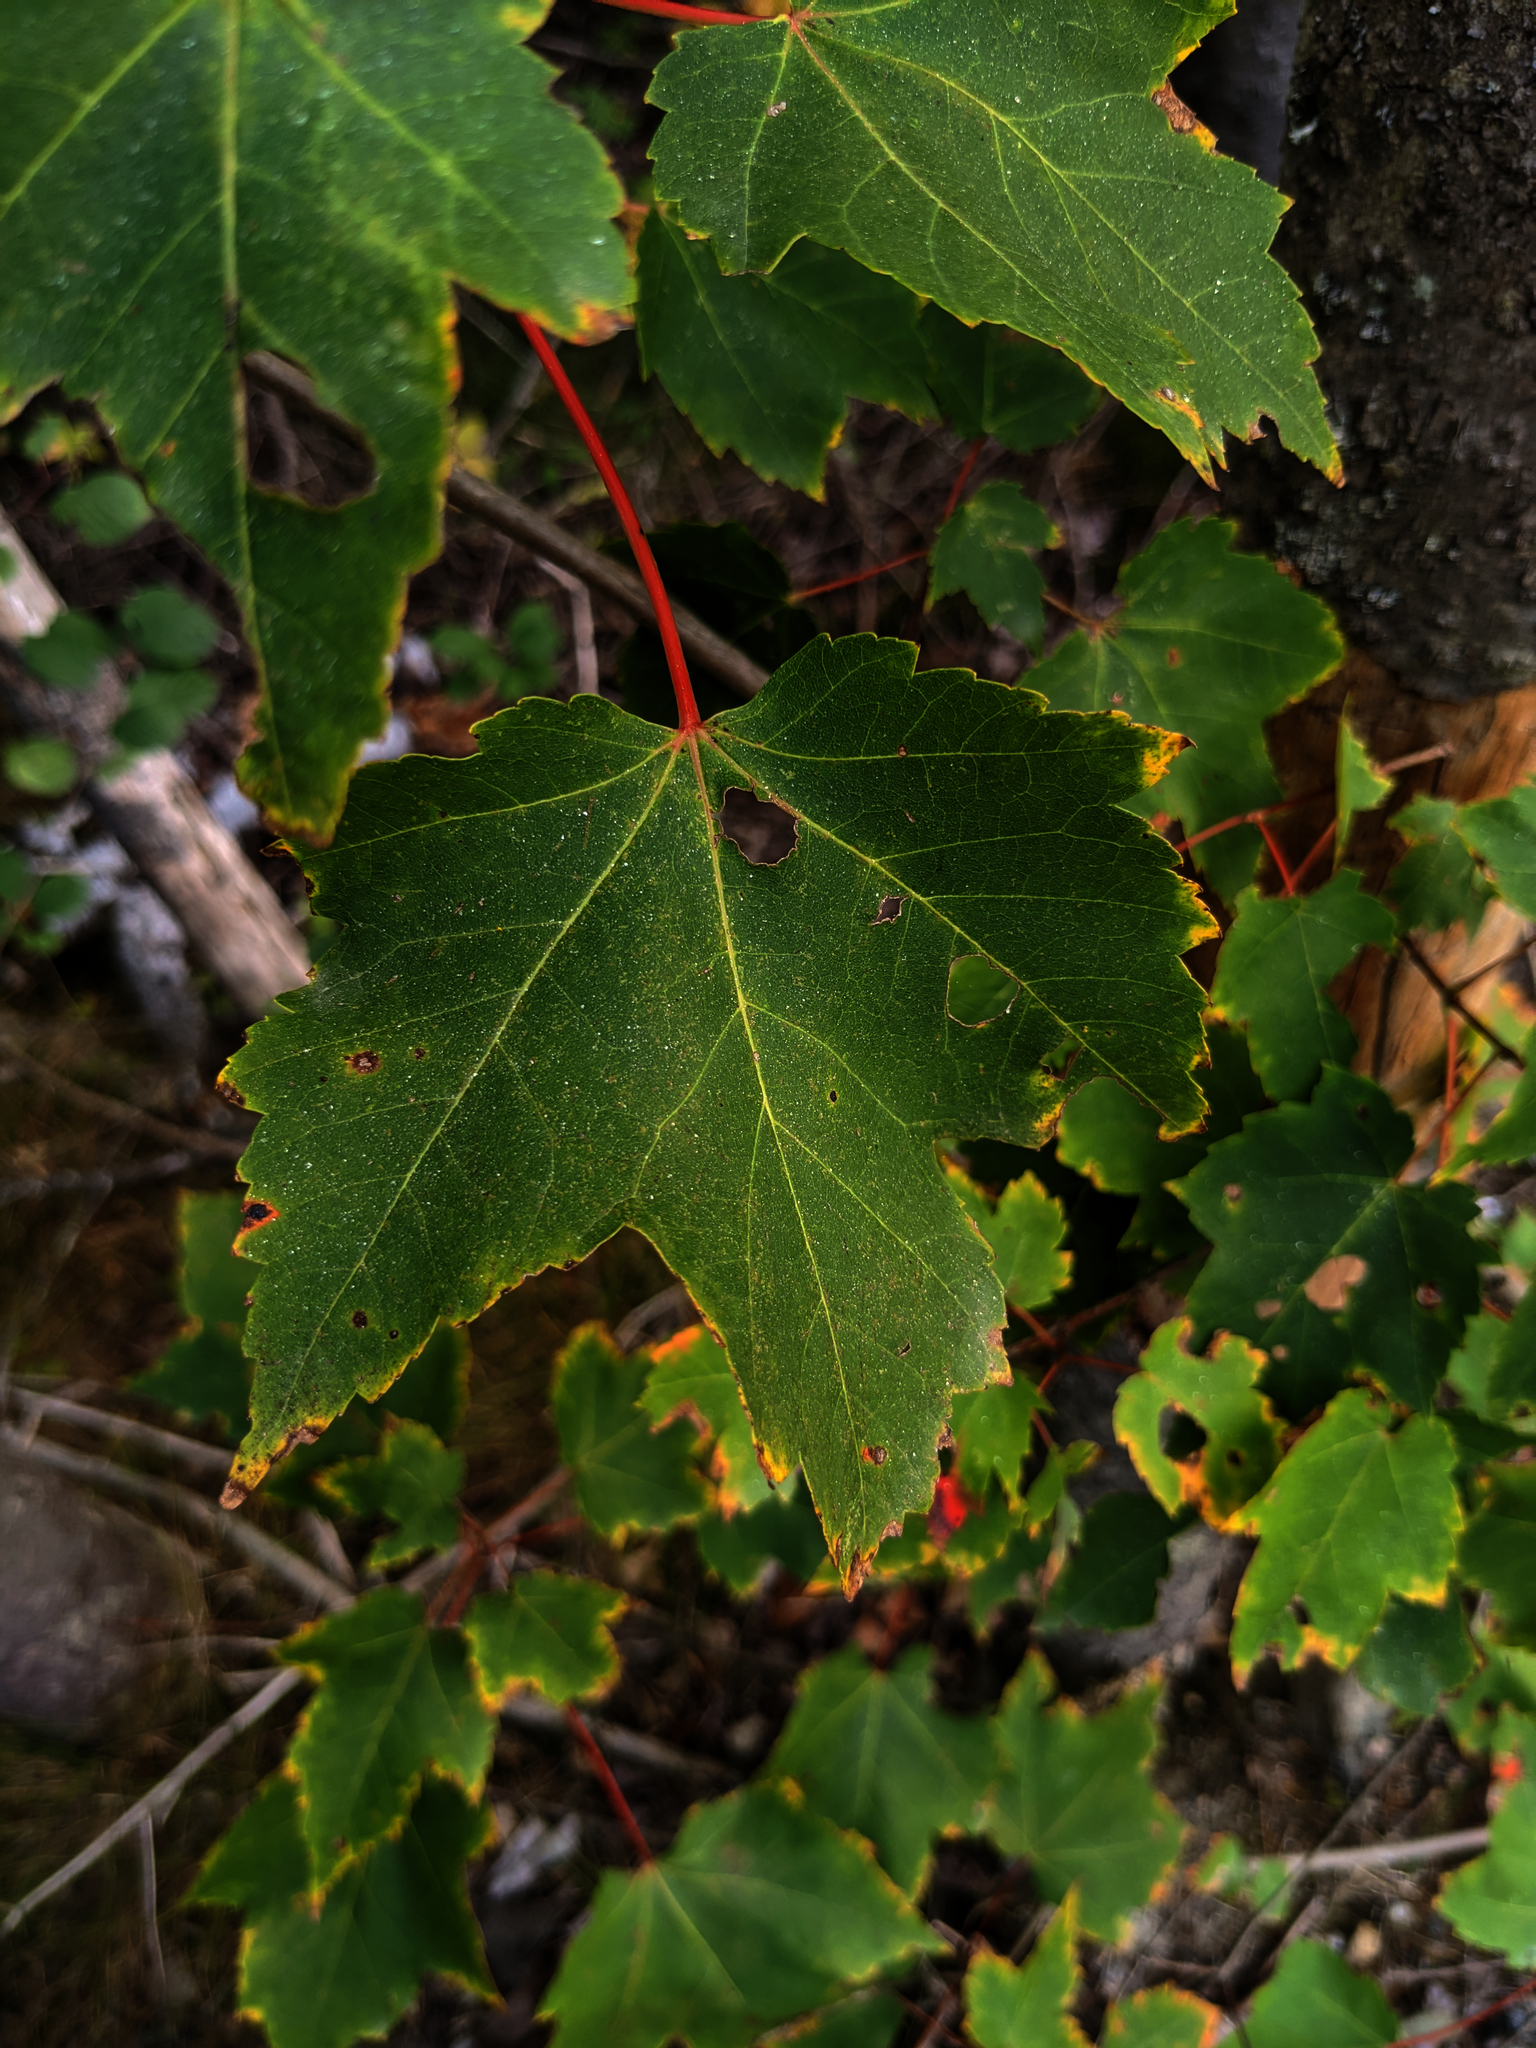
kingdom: Plantae
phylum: Tracheophyta
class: Magnoliopsida
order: Sapindales
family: Sapindaceae
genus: Acer
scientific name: Acer rubrum
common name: Red maple
